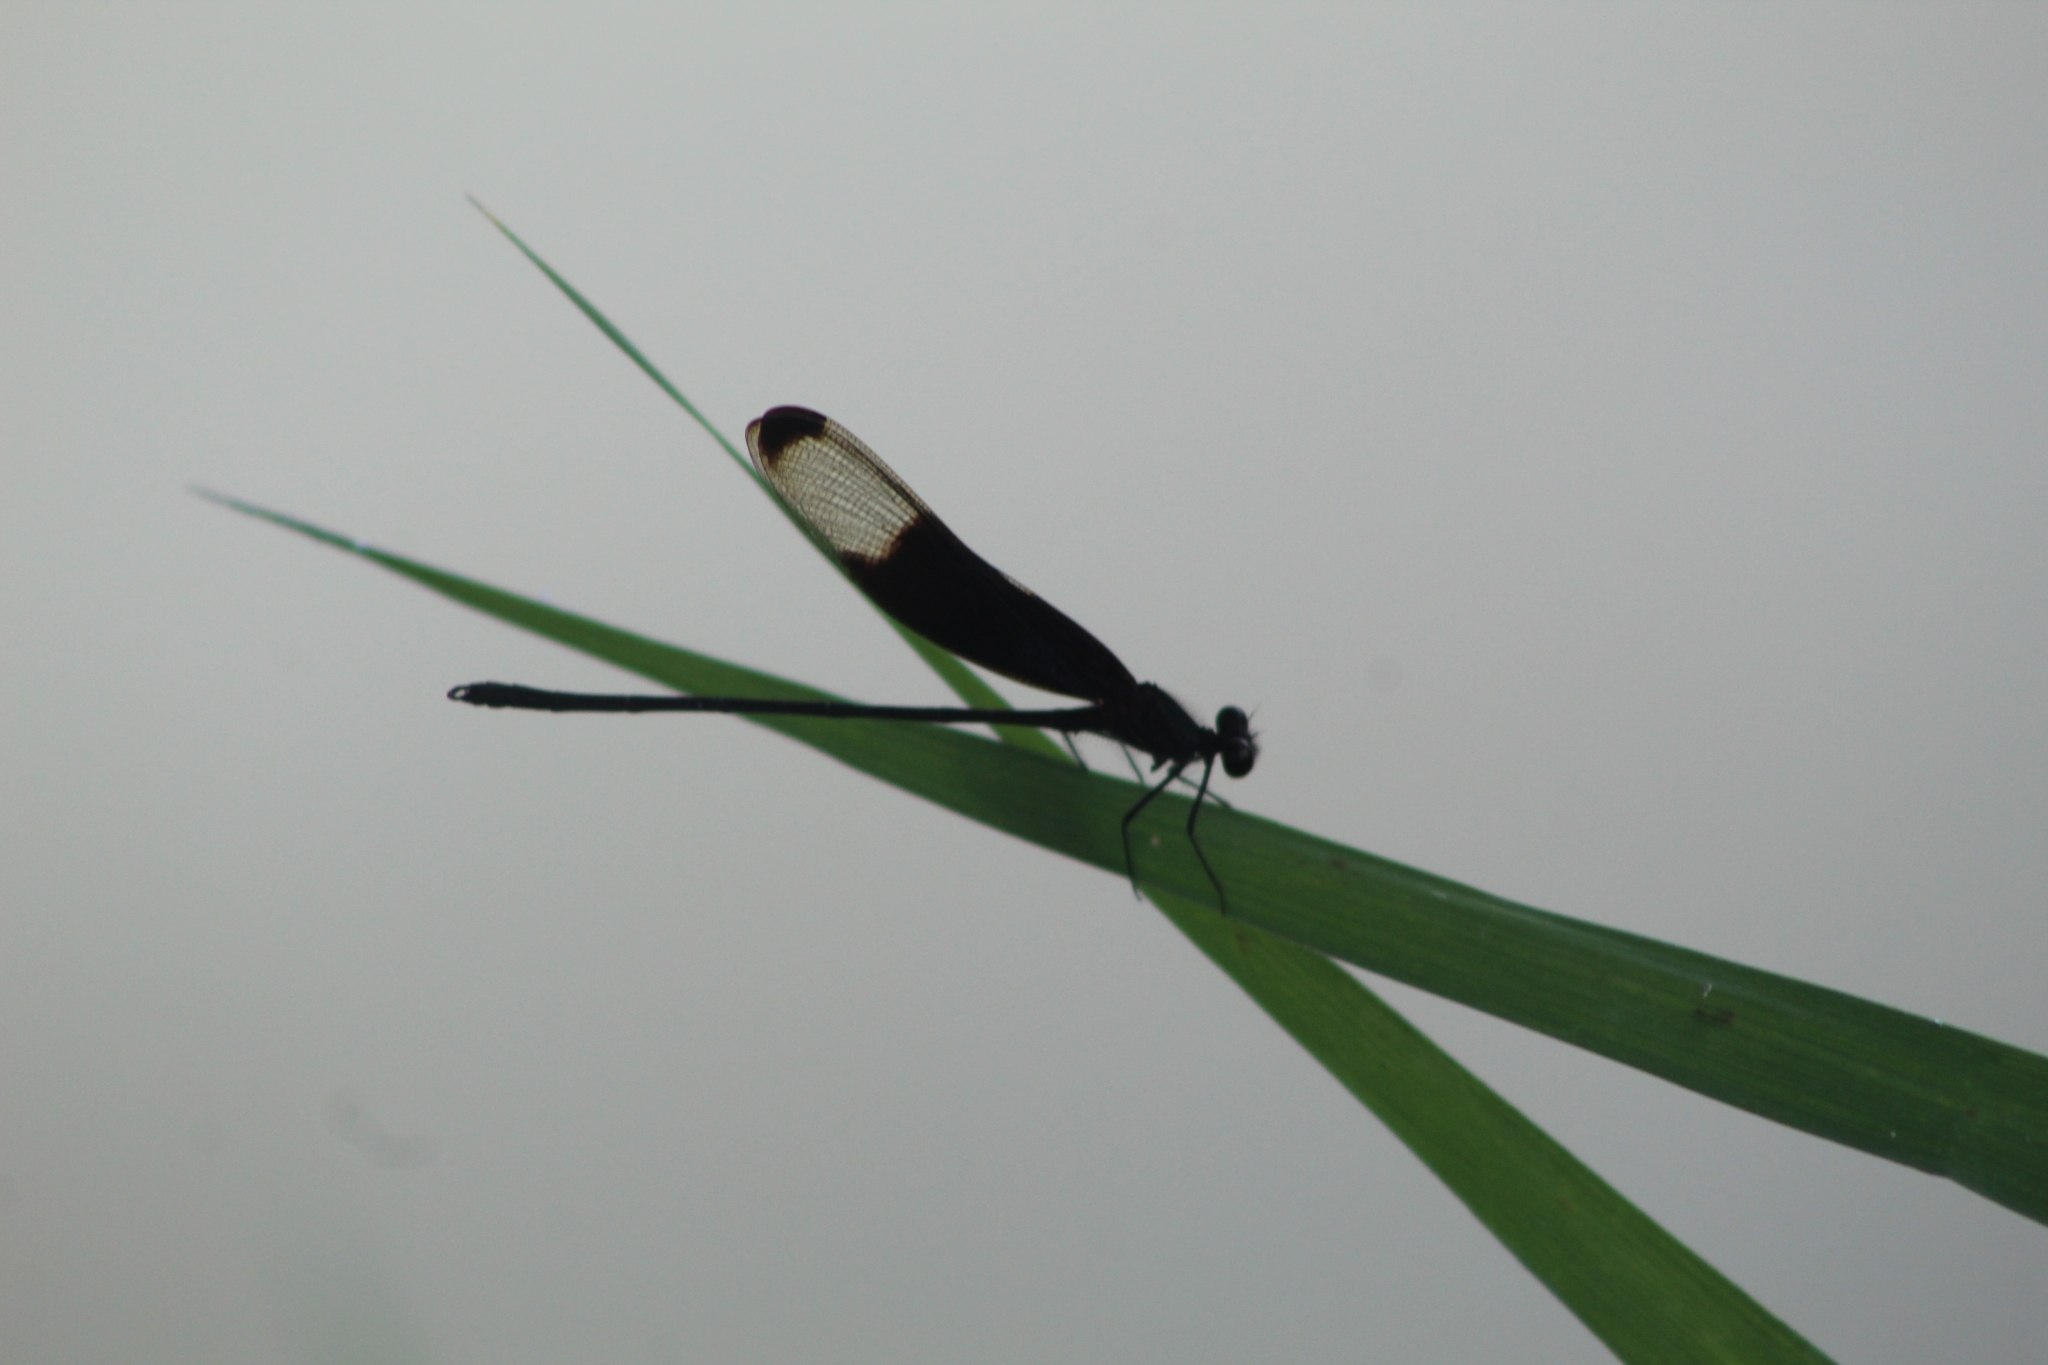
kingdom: Animalia
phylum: Arthropoda
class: Insecta
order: Odonata
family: Calopterygidae
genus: Hetaerina
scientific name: Hetaerina titia
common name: Smoky rubyspot
